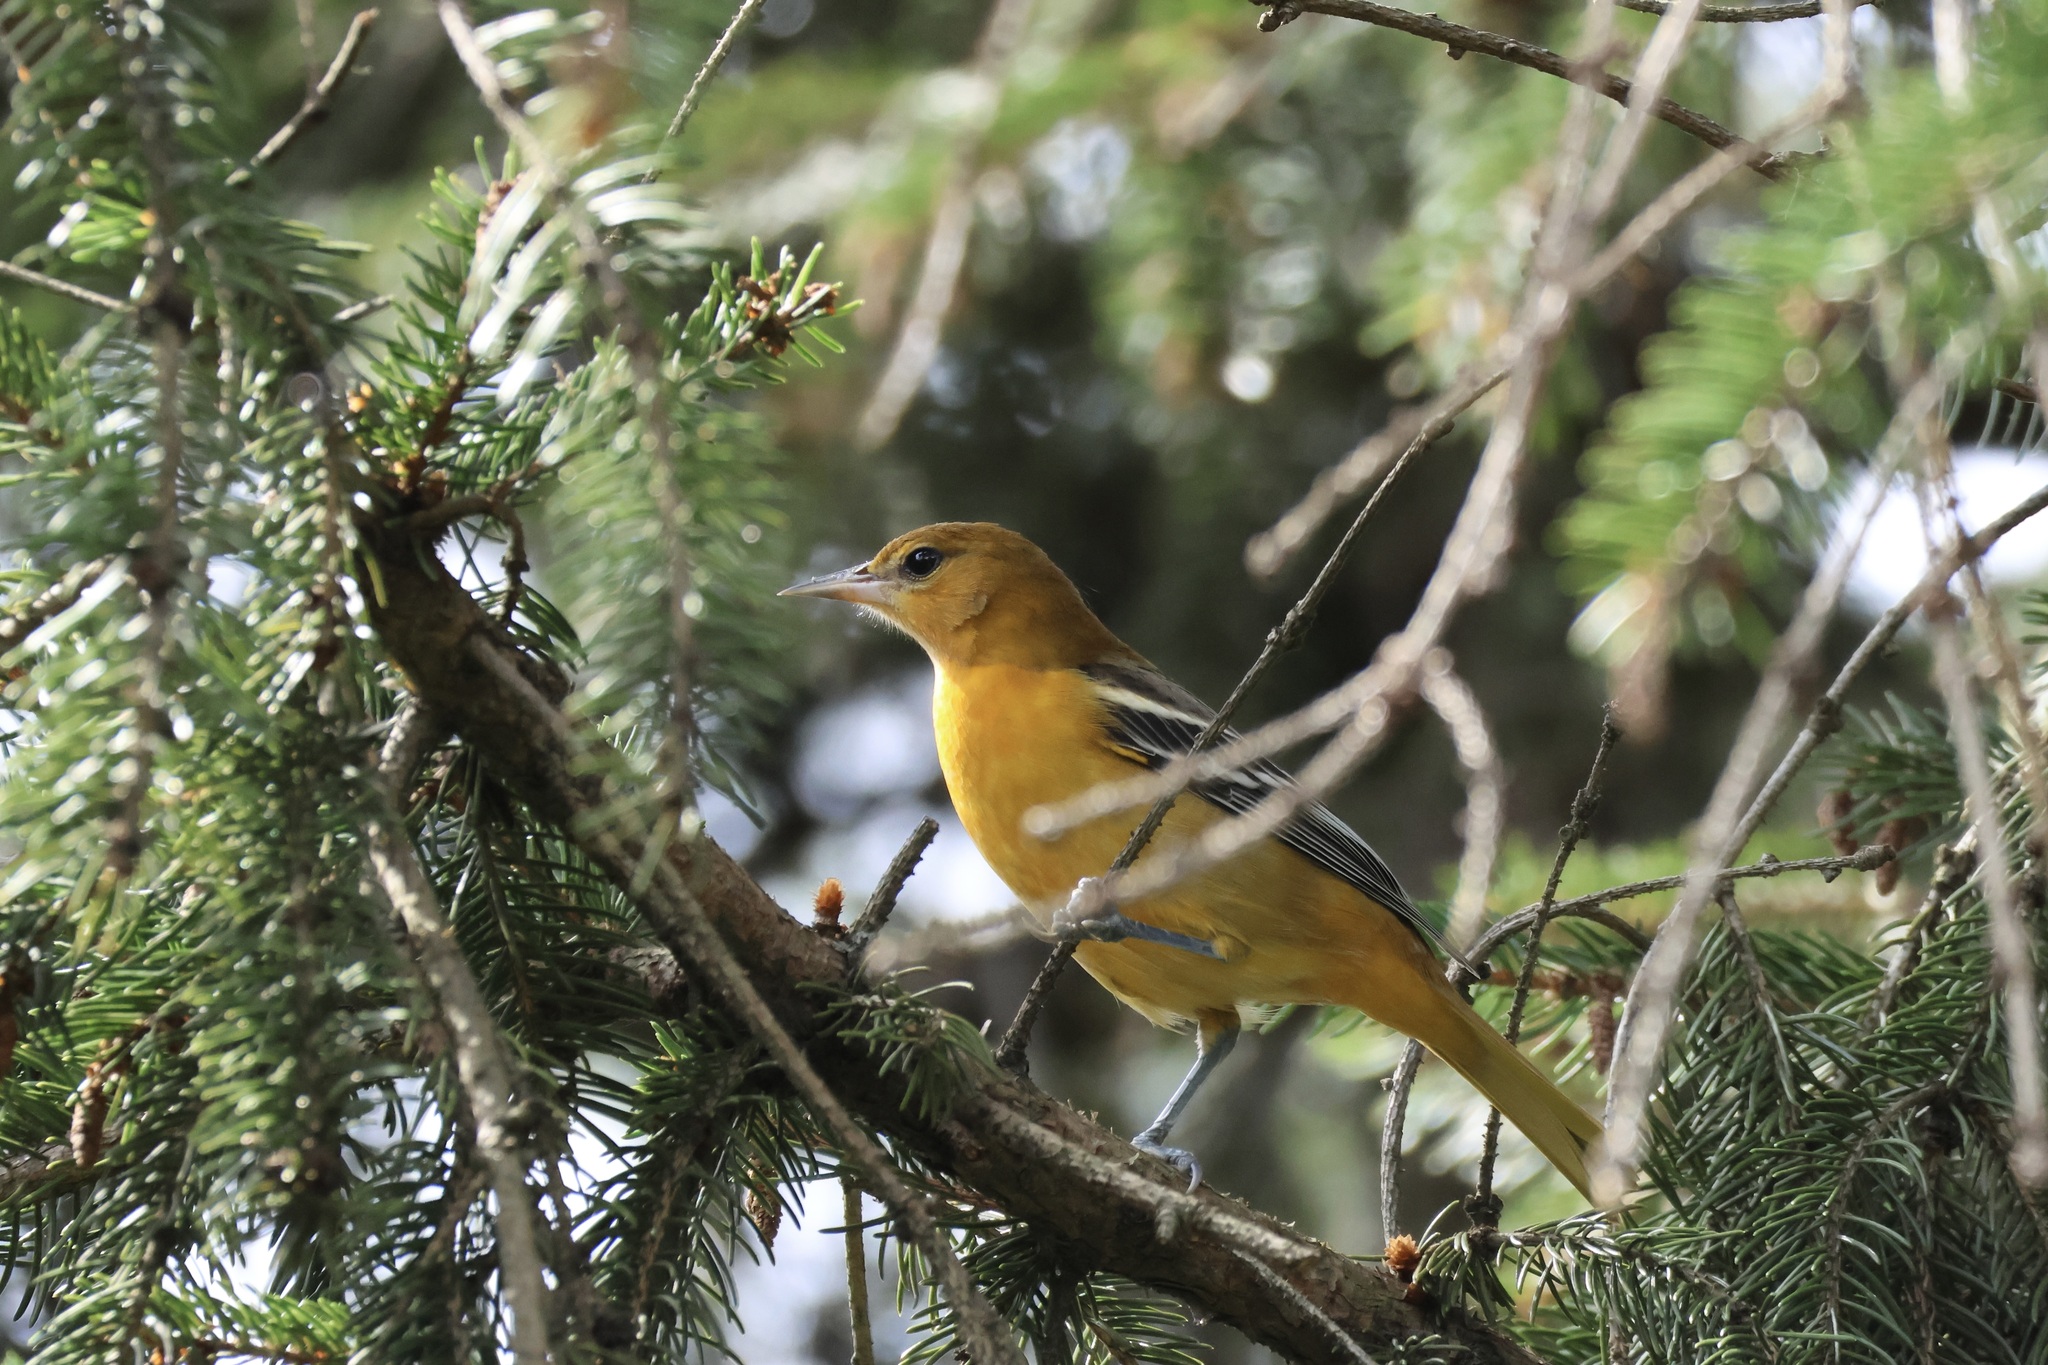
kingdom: Animalia
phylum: Chordata
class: Aves
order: Passeriformes
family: Icteridae
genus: Icterus
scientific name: Icterus galbula
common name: Baltimore oriole
